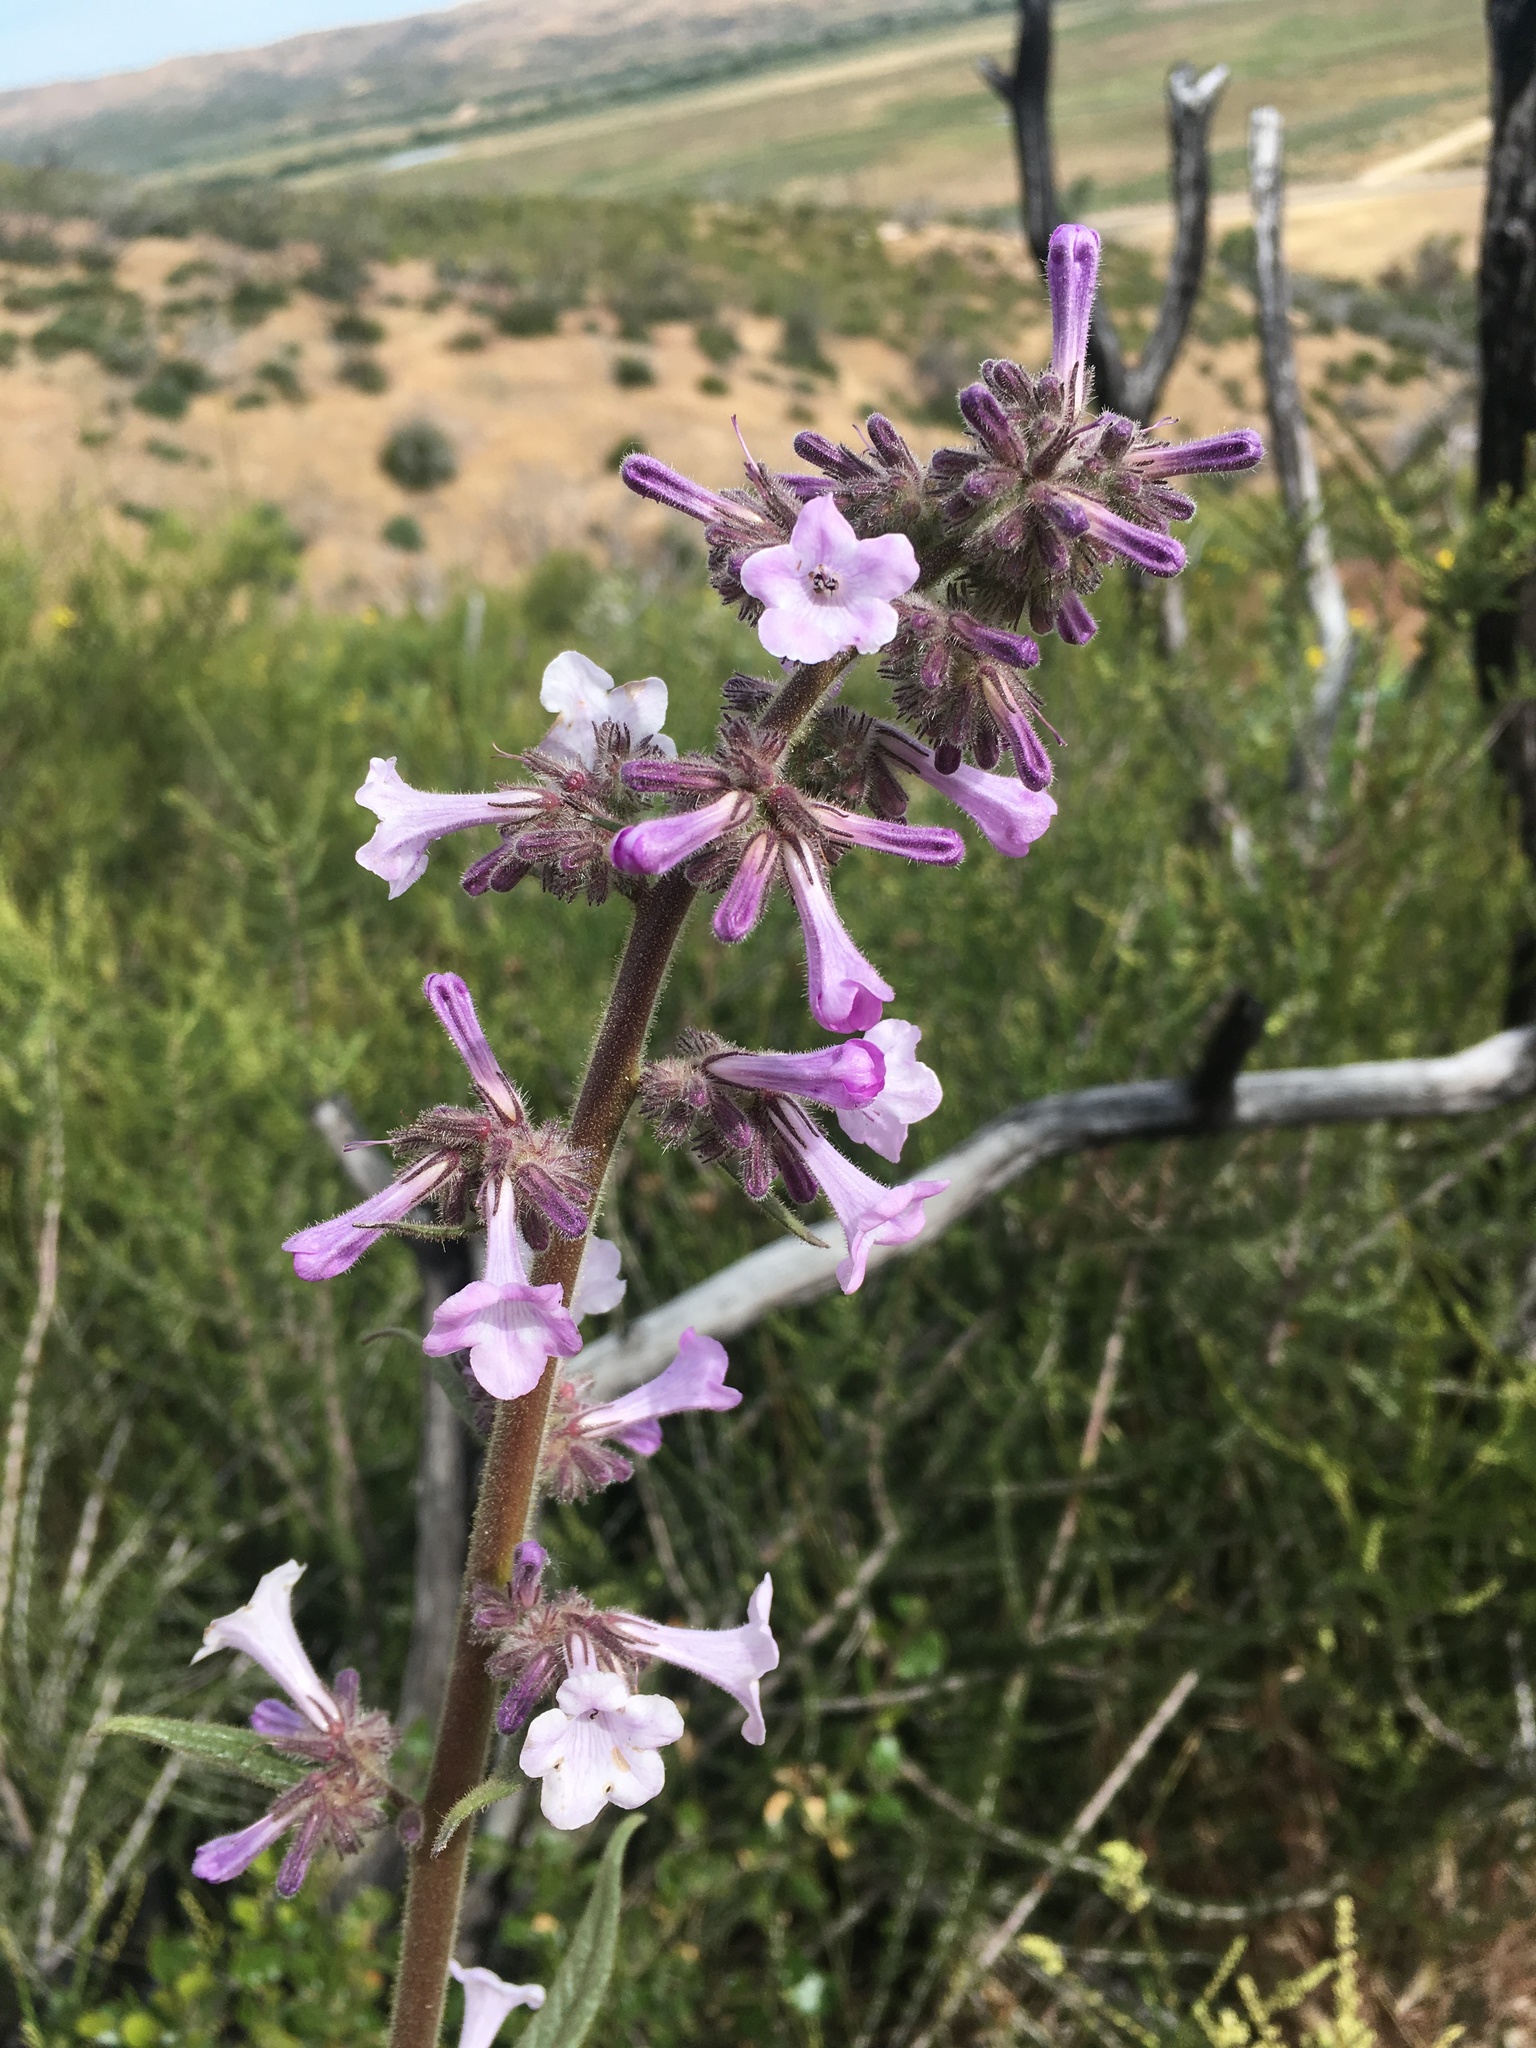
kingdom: Plantae
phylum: Tracheophyta
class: Magnoliopsida
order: Boraginales
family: Namaceae
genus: Turricula
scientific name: Turricula parryi
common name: Poodle-dog-bush
